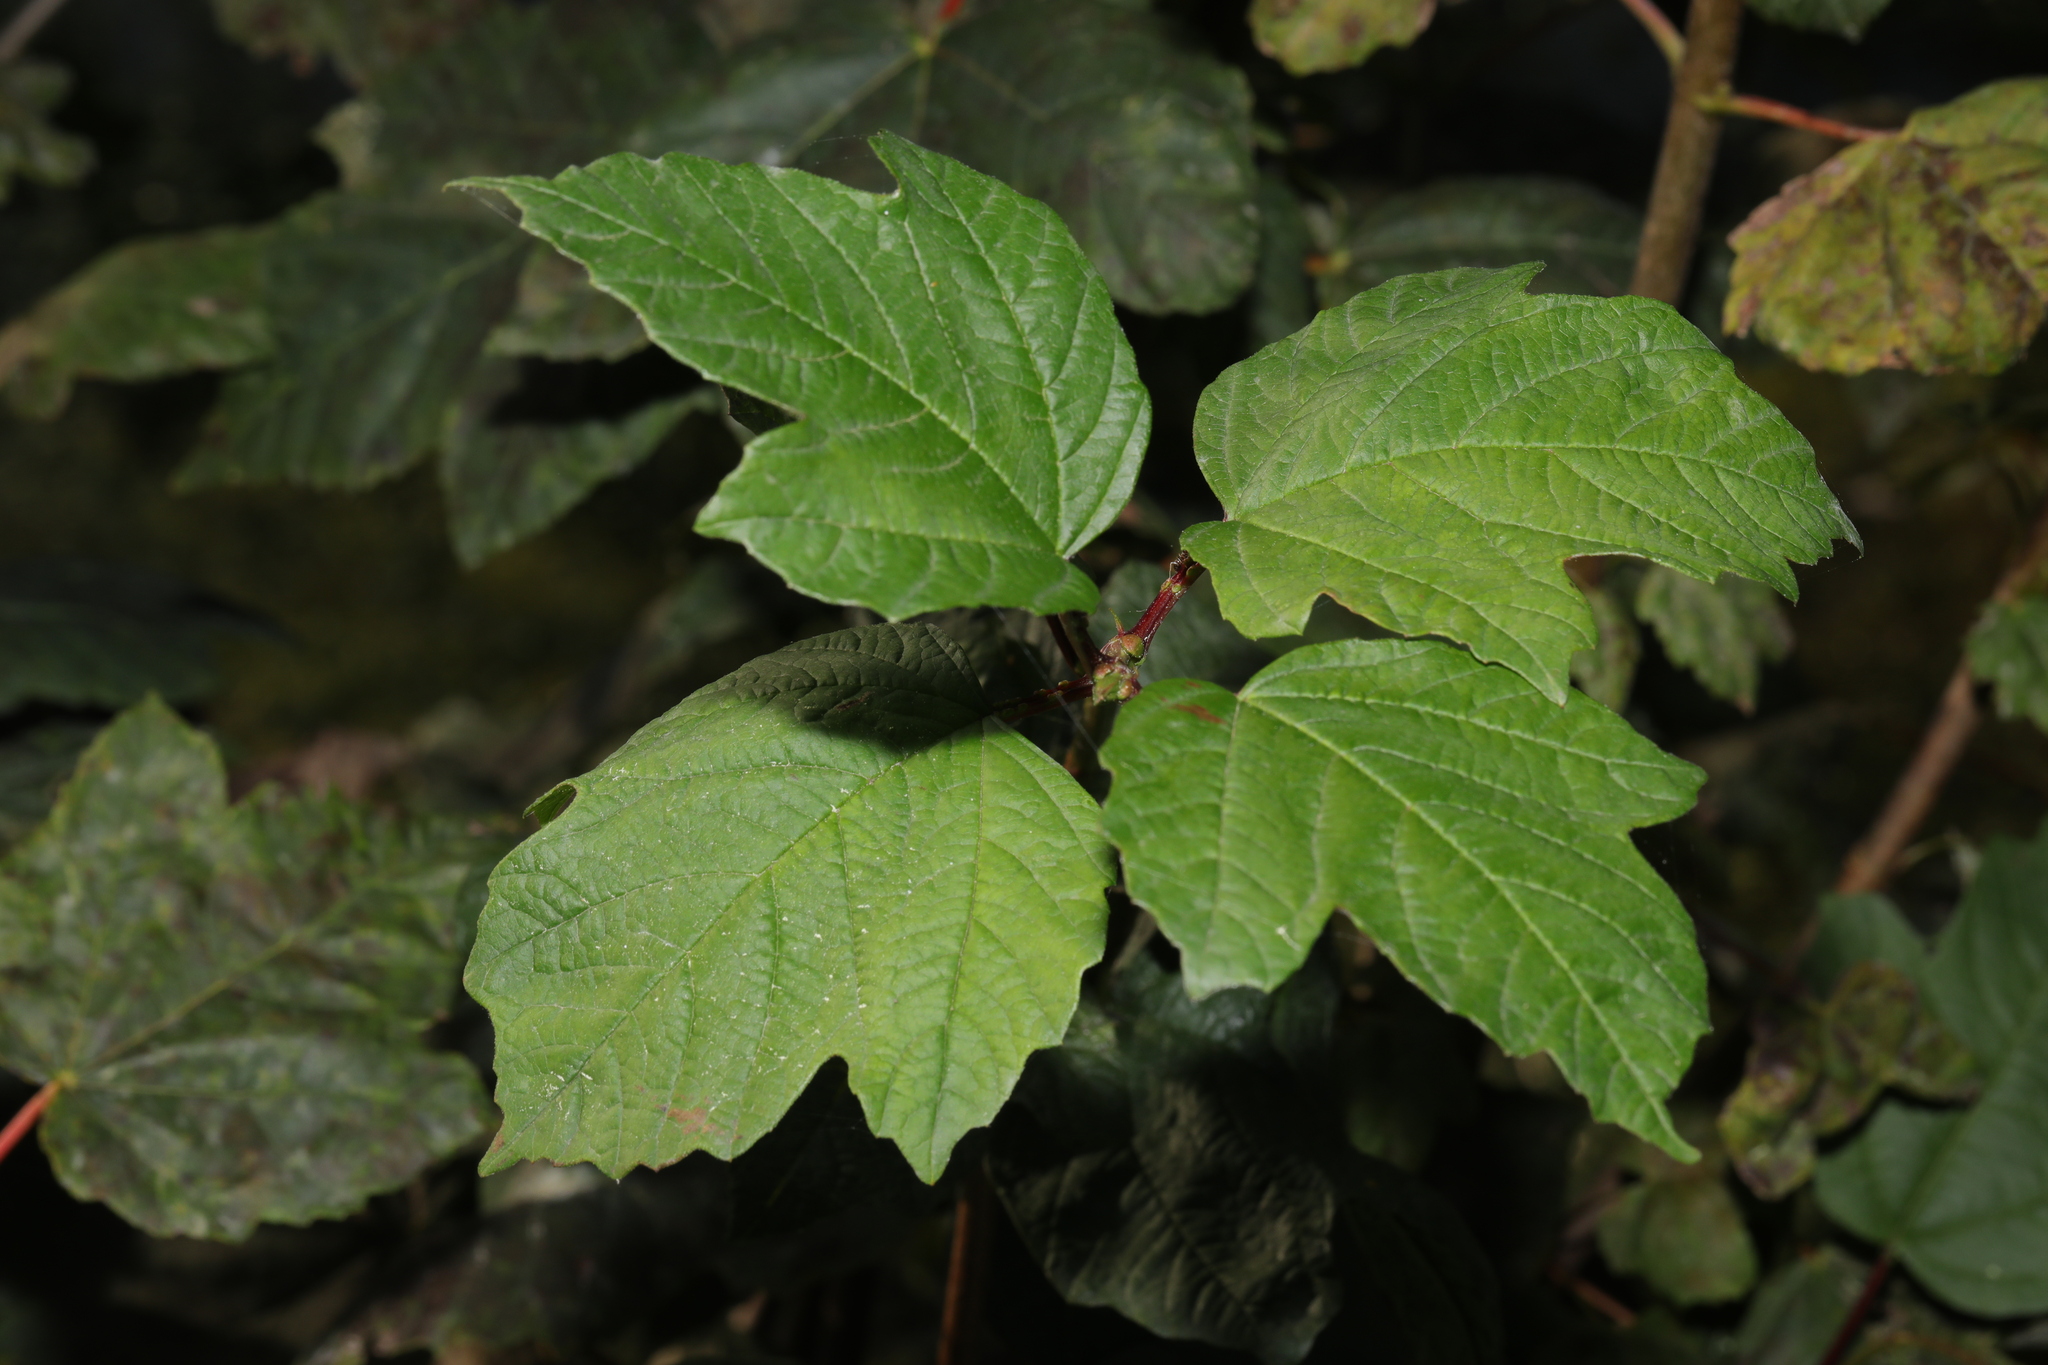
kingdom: Plantae
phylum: Tracheophyta
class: Magnoliopsida
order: Dipsacales
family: Viburnaceae
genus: Viburnum
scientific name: Viburnum opulus
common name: Guelder-rose
